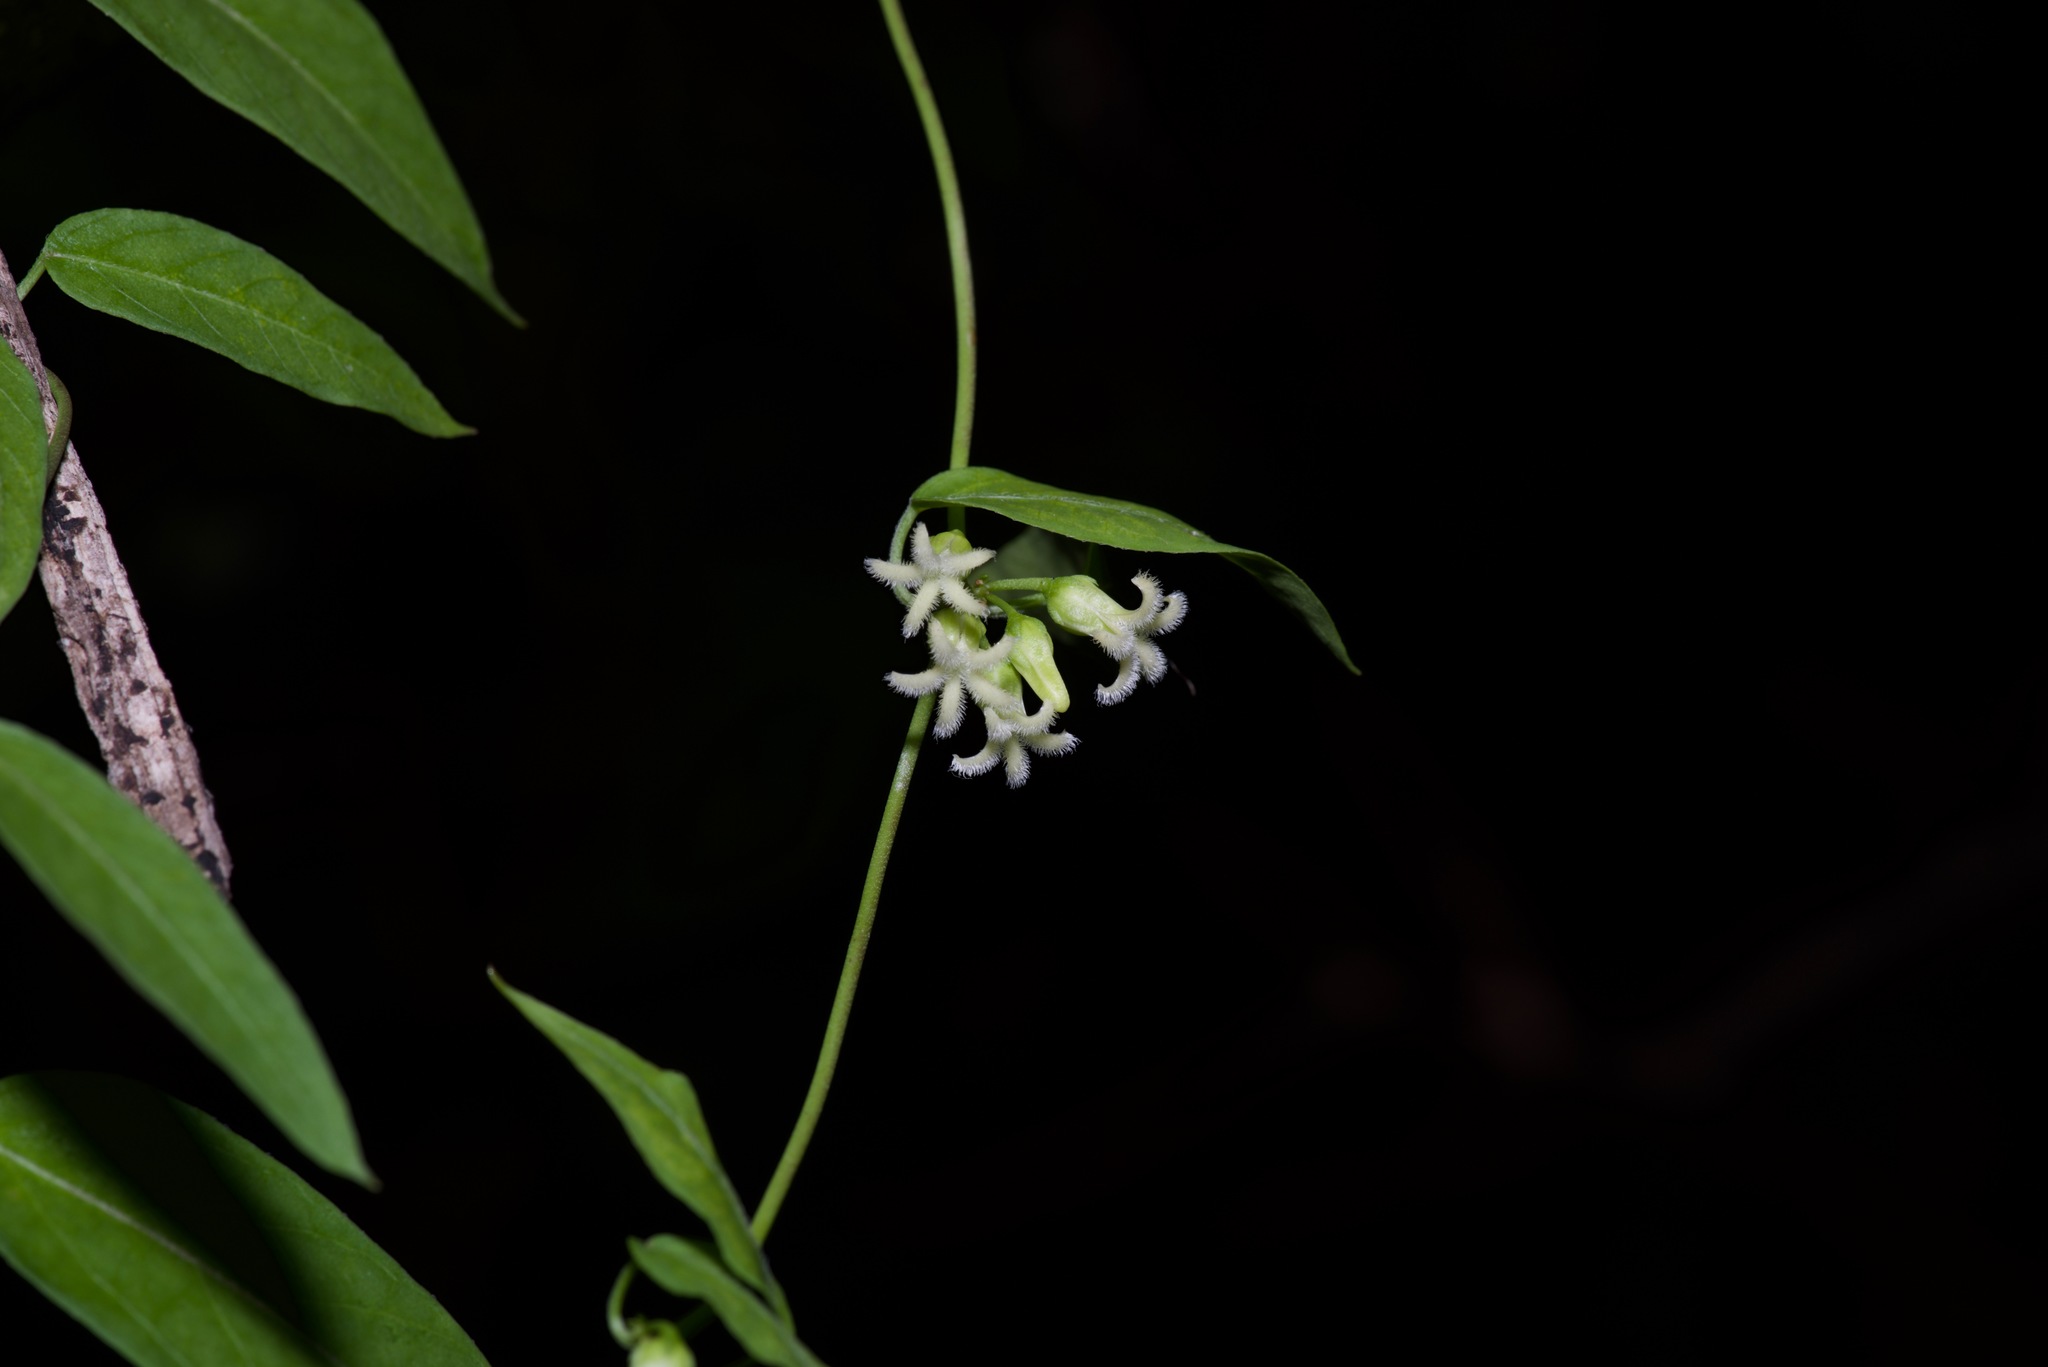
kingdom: Plantae
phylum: Tracheophyta
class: Magnoliopsida
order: Gentianales
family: Apocynaceae
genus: Metastelma
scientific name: Metastelma barbigerum
